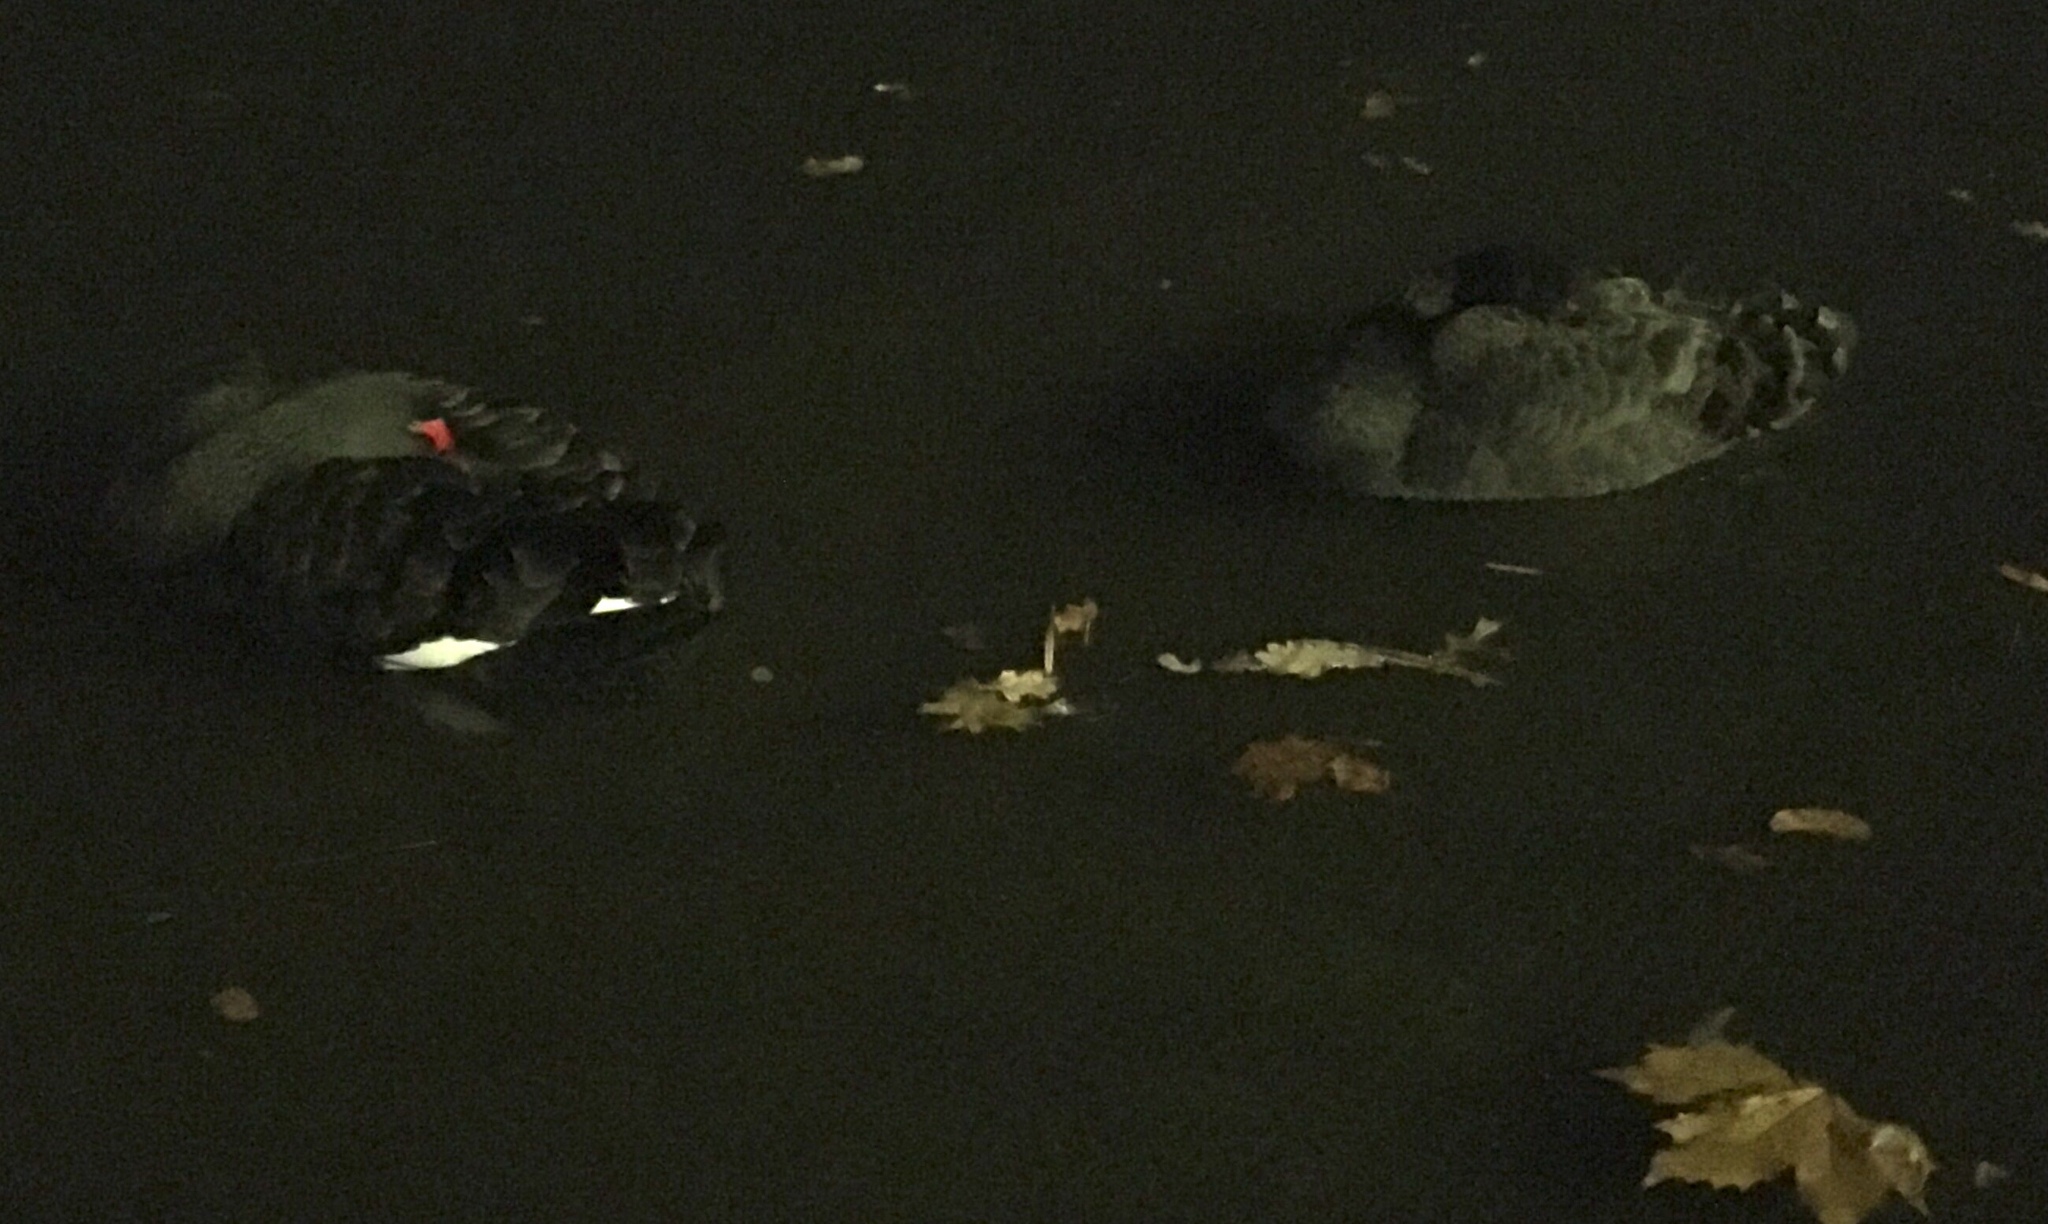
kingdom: Animalia
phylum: Chordata
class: Aves
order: Anseriformes
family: Anatidae
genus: Cygnus
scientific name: Cygnus atratus
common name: Black swan
